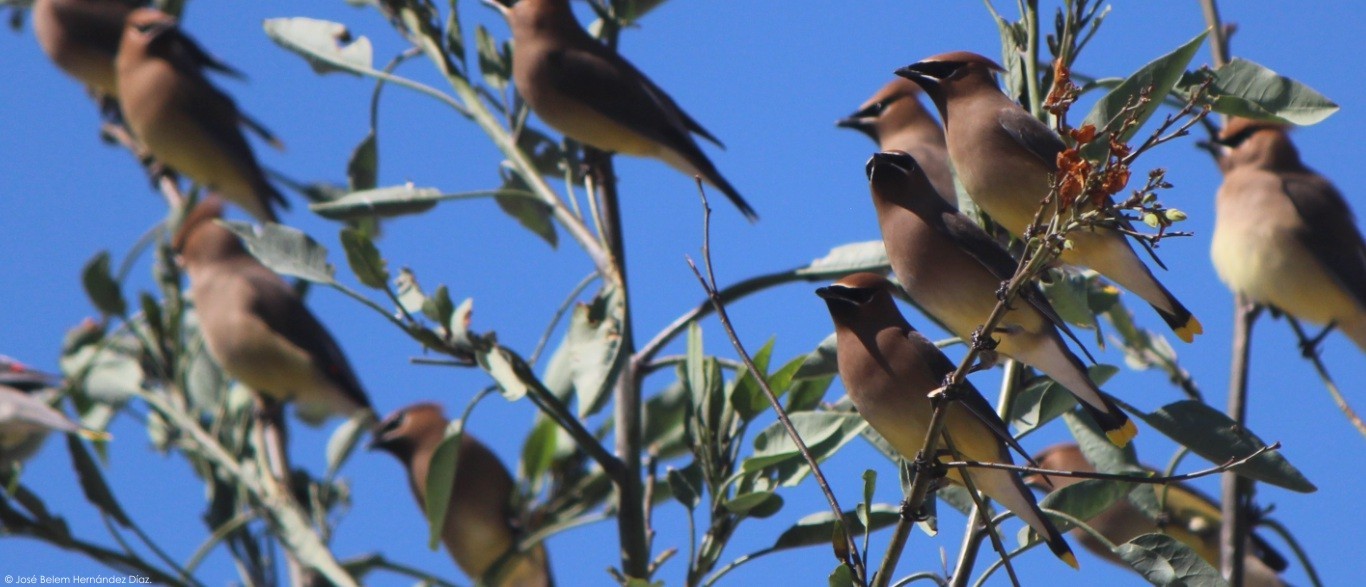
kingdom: Animalia
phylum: Chordata
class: Aves
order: Passeriformes
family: Bombycillidae
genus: Bombycilla
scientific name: Bombycilla cedrorum
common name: Cedar waxwing
